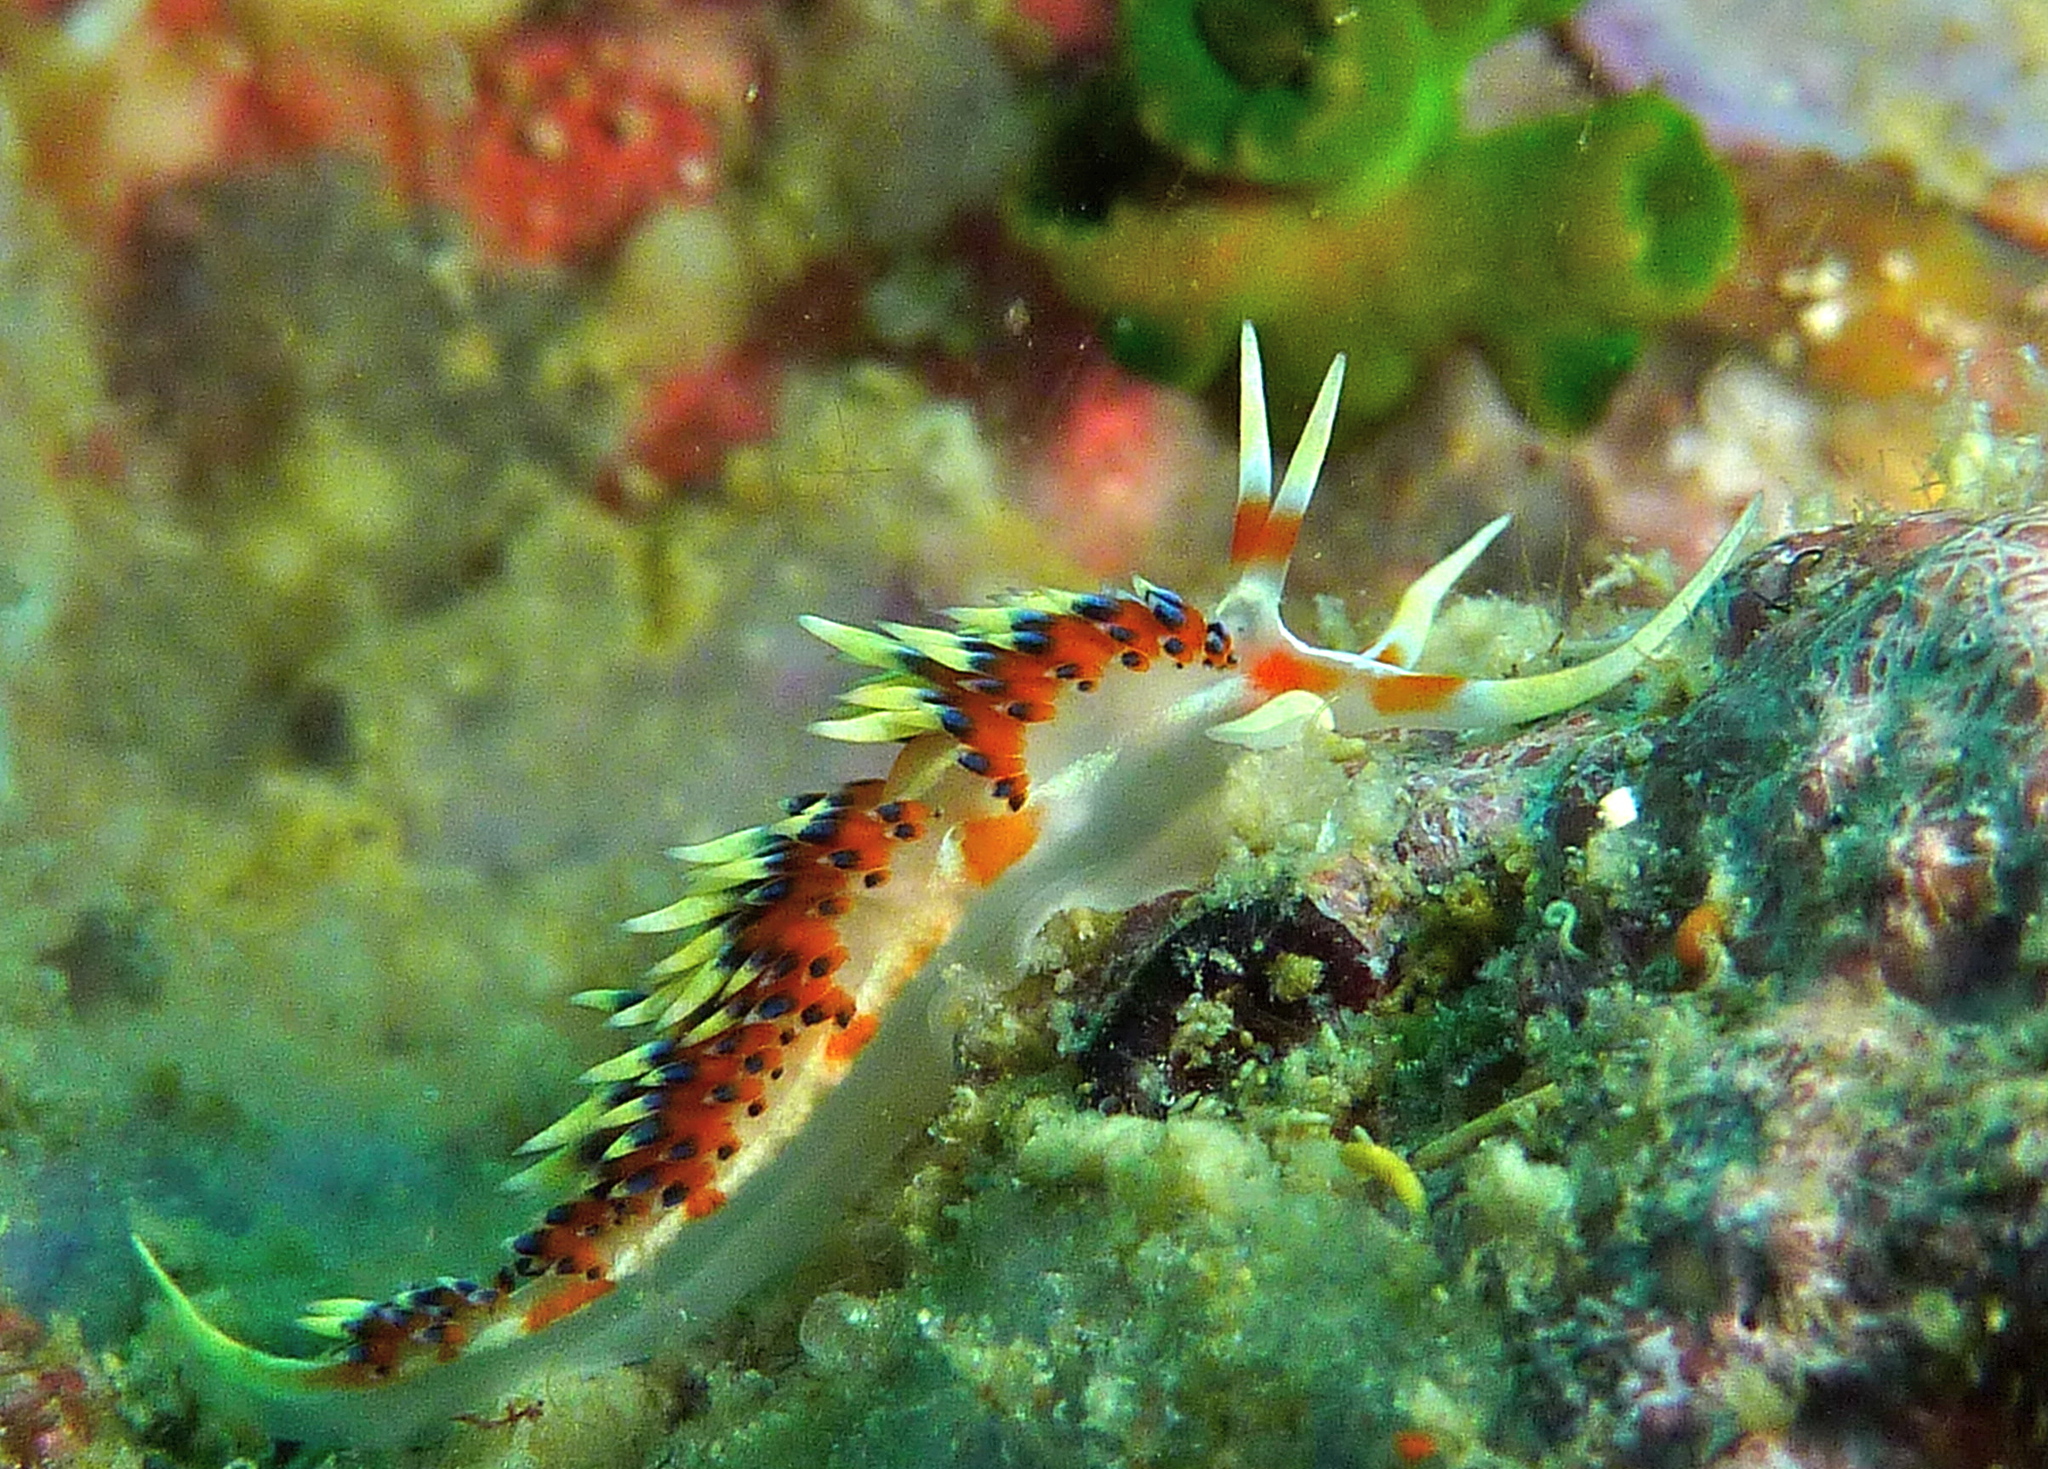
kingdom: Animalia
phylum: Mollusca
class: Gastropoda
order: Nudibranchia
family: Facelinidae
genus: Caloria
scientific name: Caloria indica
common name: Sea slug
